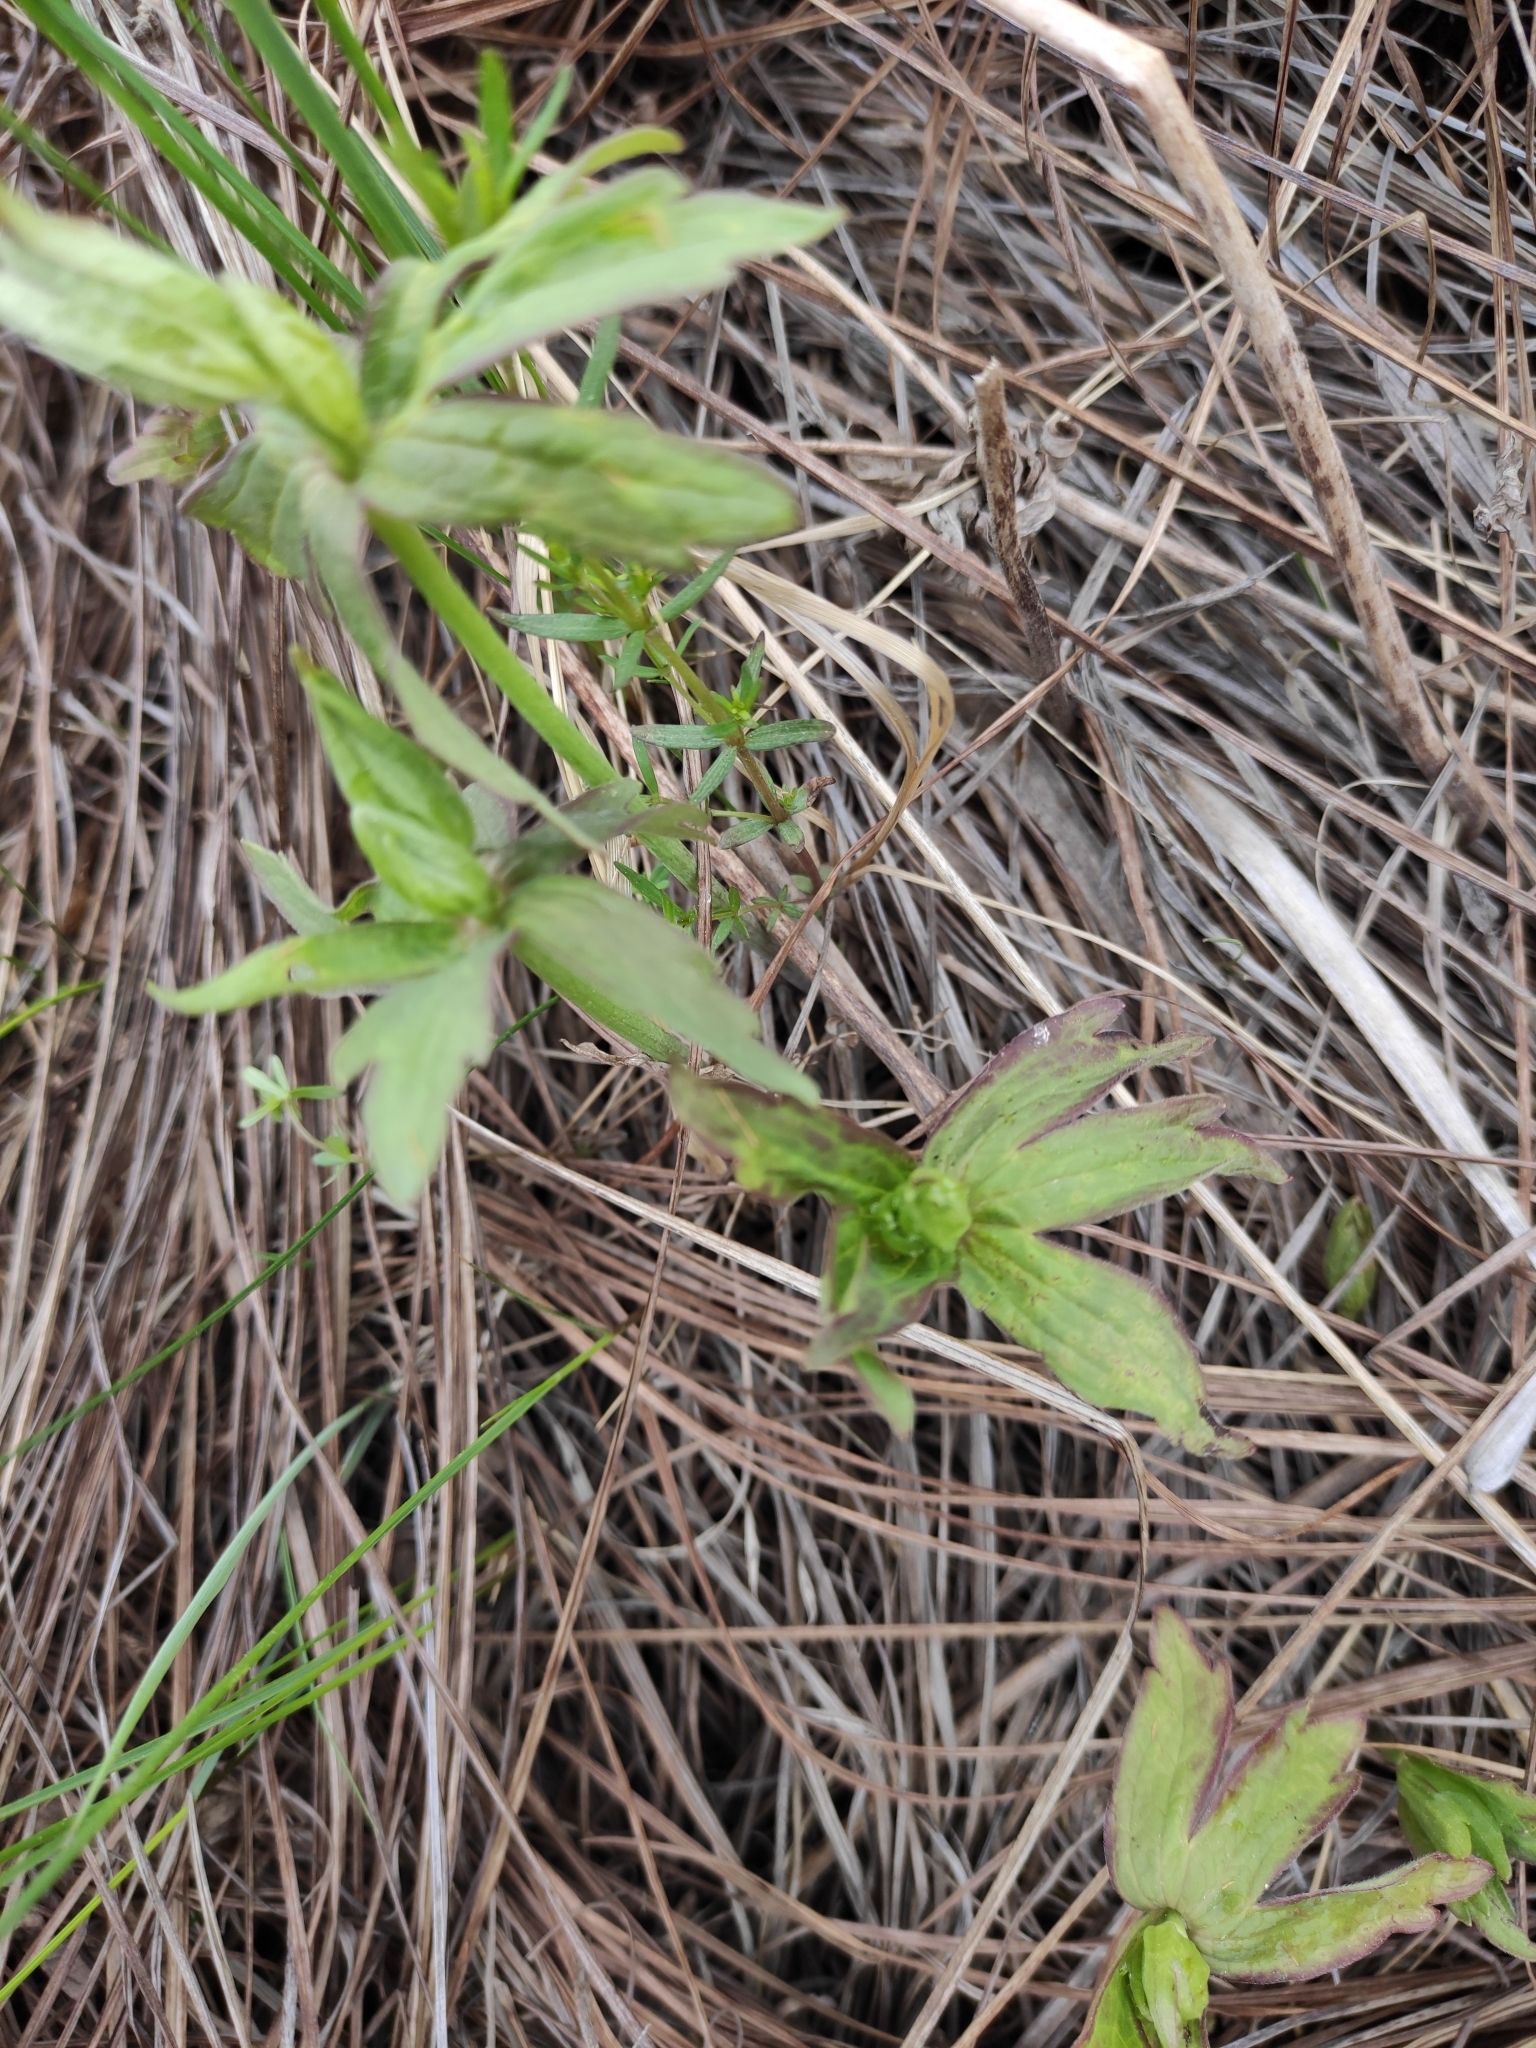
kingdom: Plantae
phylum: Tracheophyta
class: Magnoliopsida
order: Ranunculales
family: Ranunculaceae
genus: Anemonastrum
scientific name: Anemonastrum dichotomum
